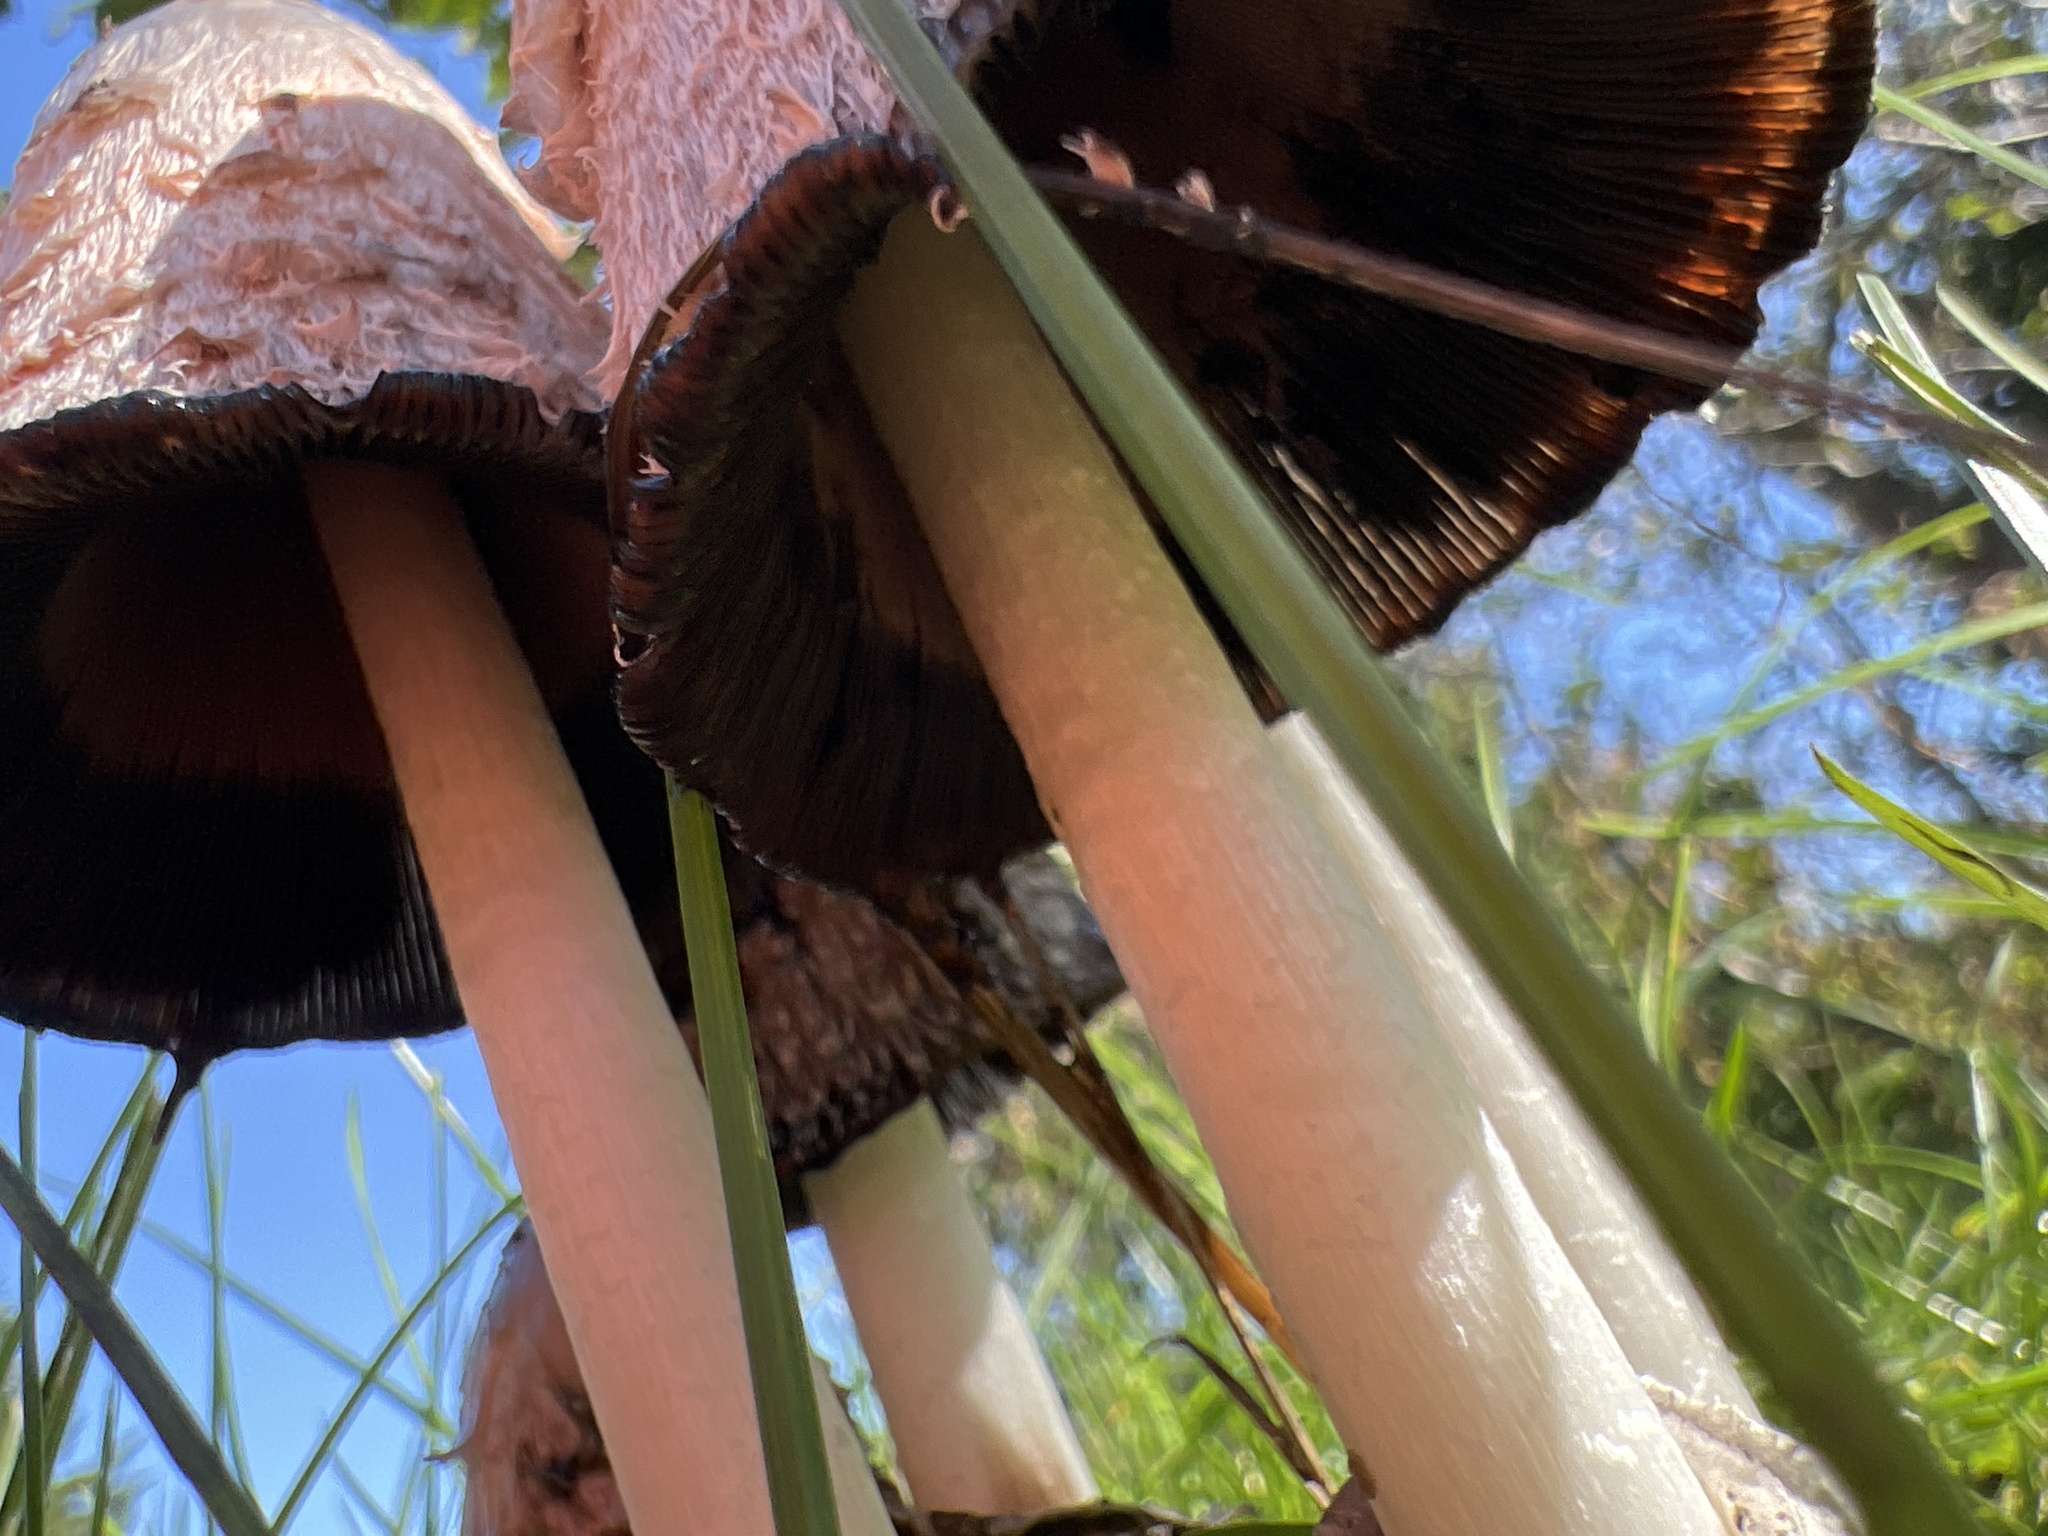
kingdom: Fungi
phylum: Basidiomycota
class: Agaricomycetes
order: Agaricales
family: Agaricaceae
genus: Coprinus
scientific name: Coprinus comatus
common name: Lawyer's wig
